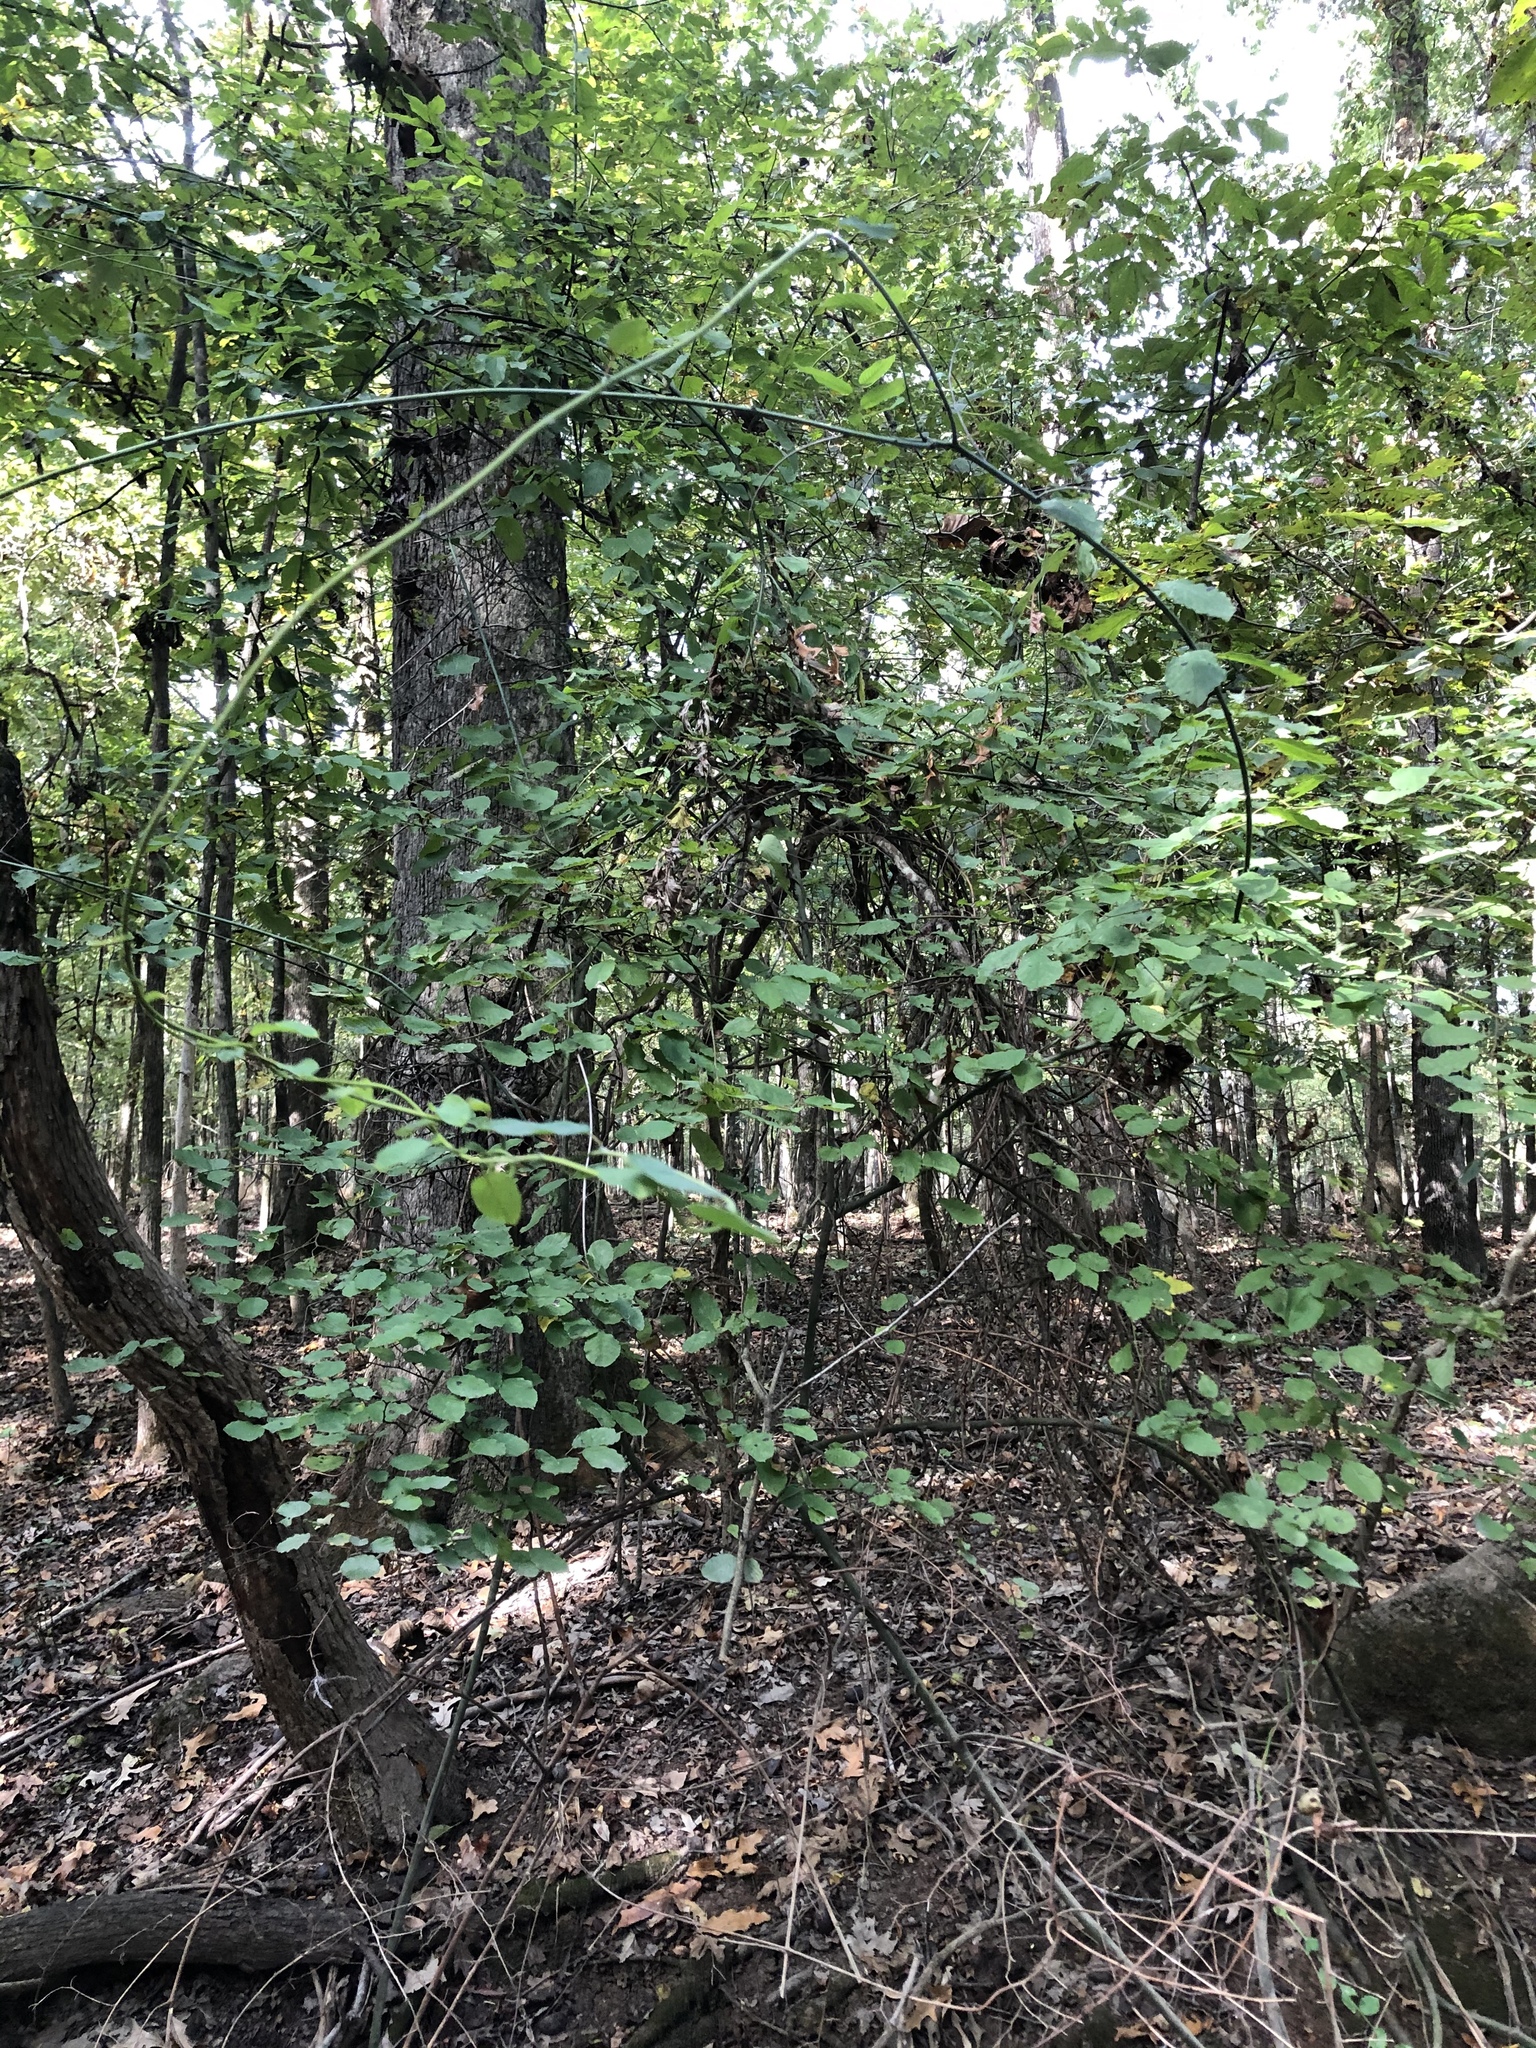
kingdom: Plantae
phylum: Tracheophyta
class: Magnoliopsida
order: Rosales
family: Rhamnaceae
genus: Berchemia
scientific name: Berchemia scandens
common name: Supplejack
